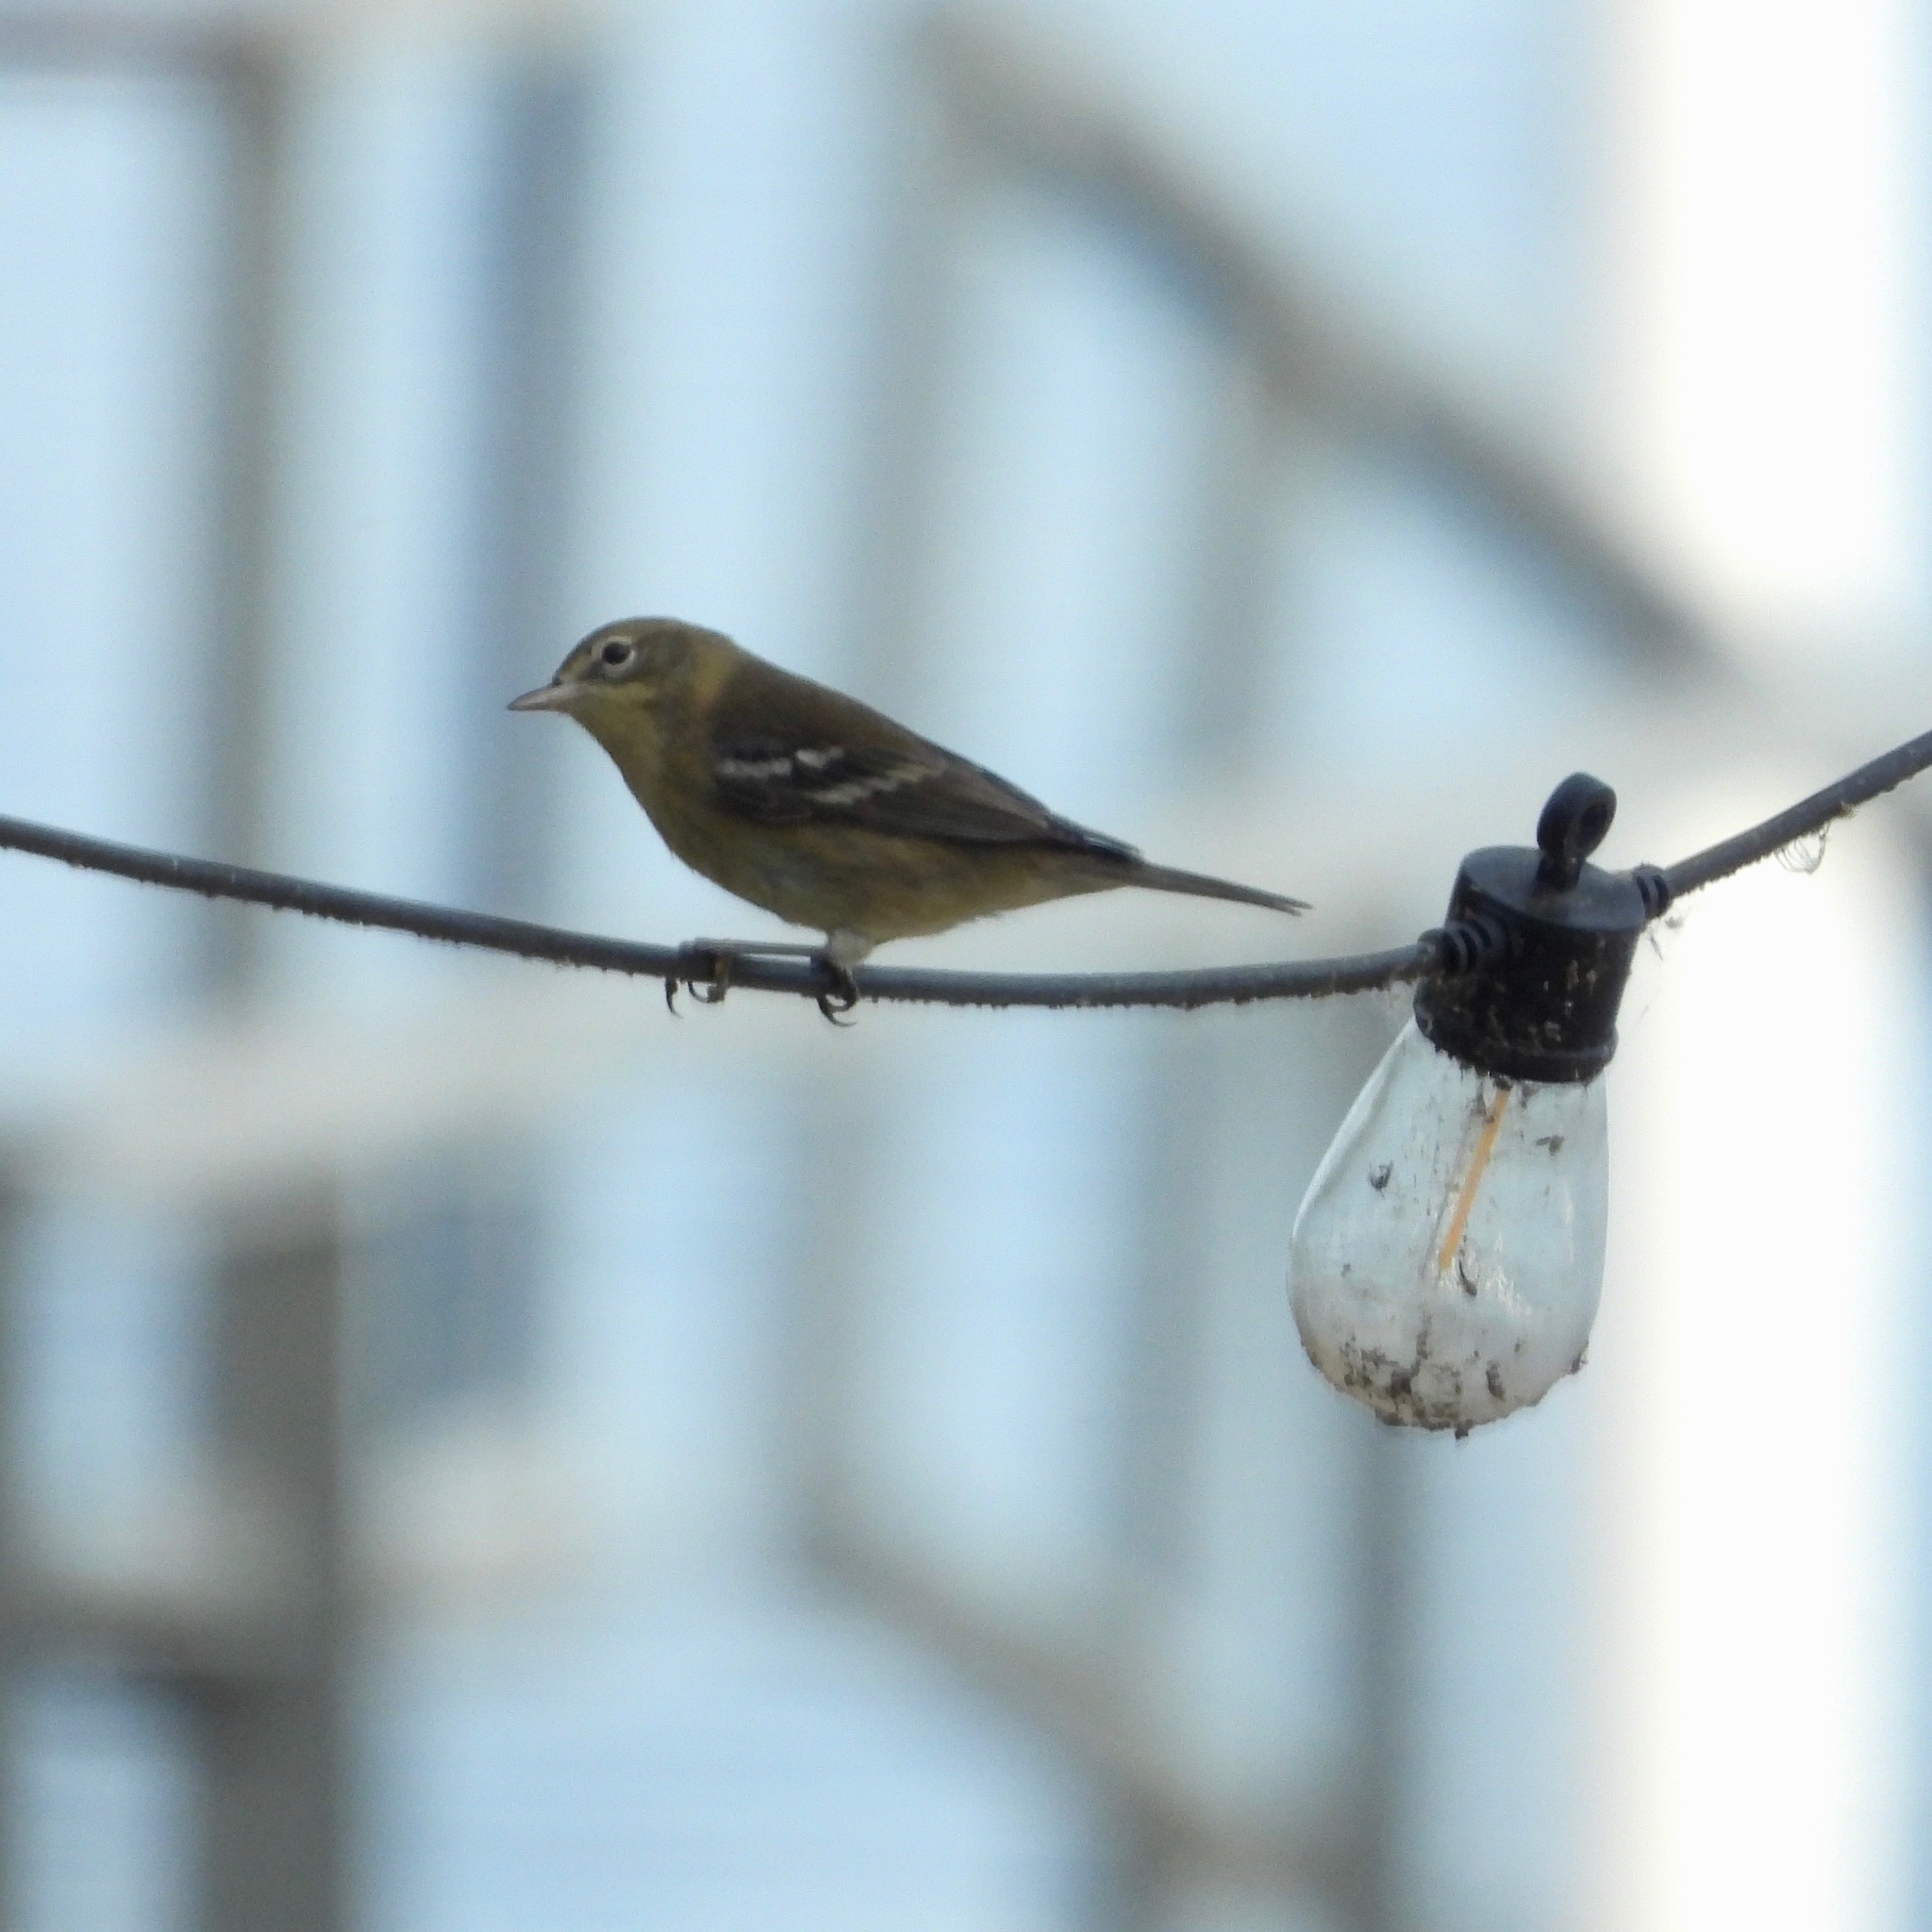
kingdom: Animalia
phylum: Chordata
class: Aves
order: Passeriformes
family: Parulidae
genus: Setophaga
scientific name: Setophaga pinus
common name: Pine warbler
